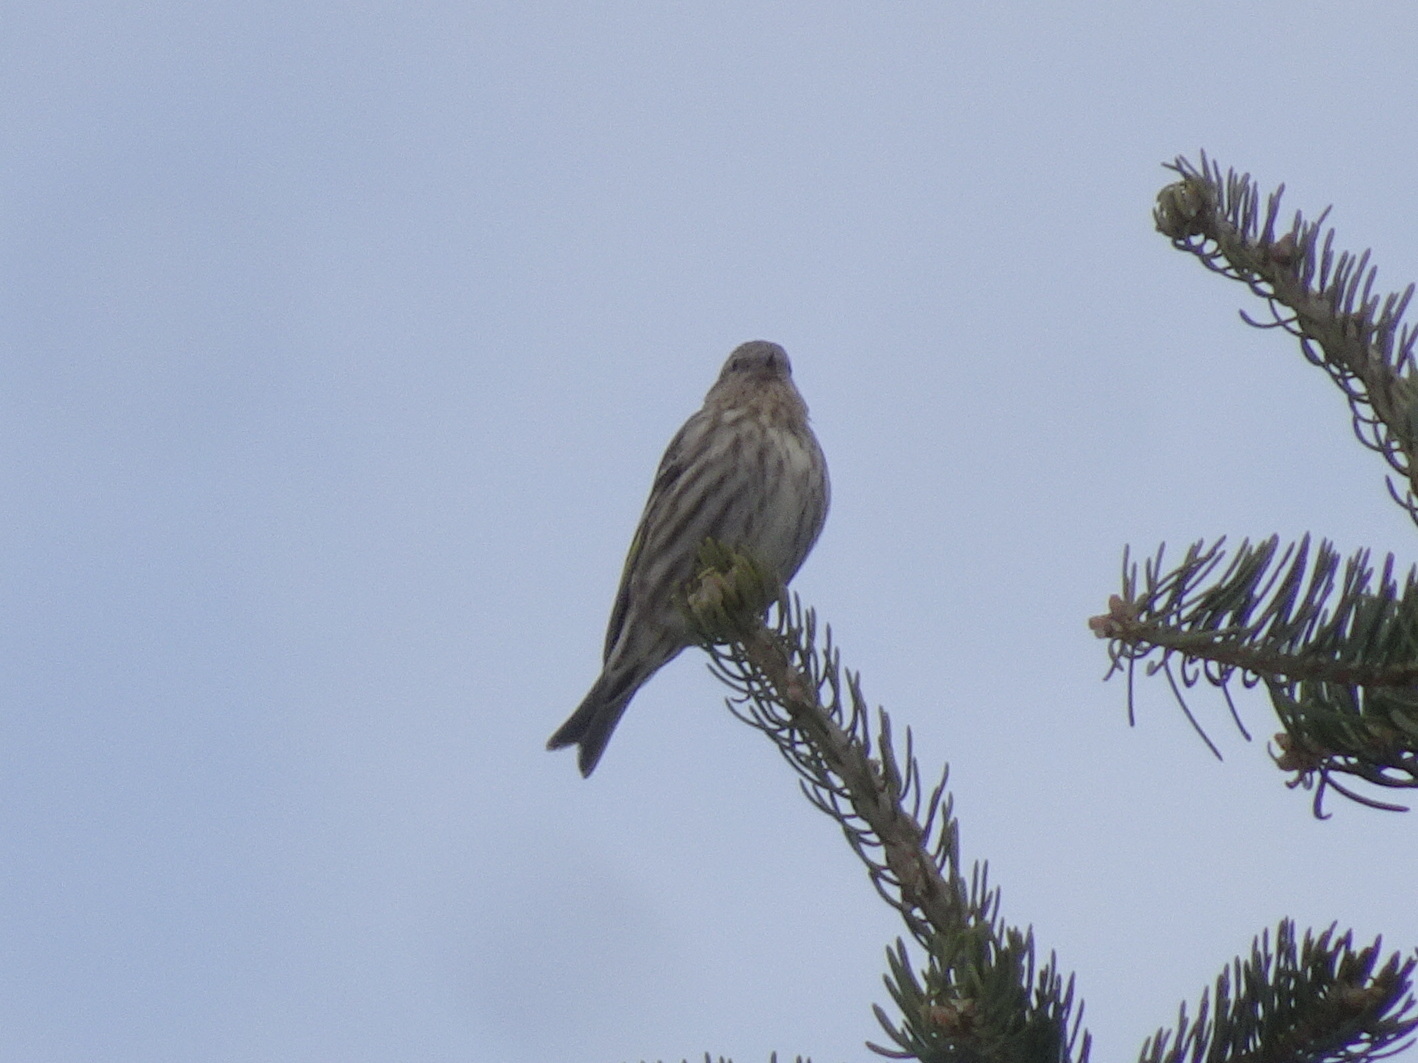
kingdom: Animalia
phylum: Chordata
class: Aves
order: Passeriformes
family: Fringillidae
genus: Spinus
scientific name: Spinus pinus
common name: Pine siskin
